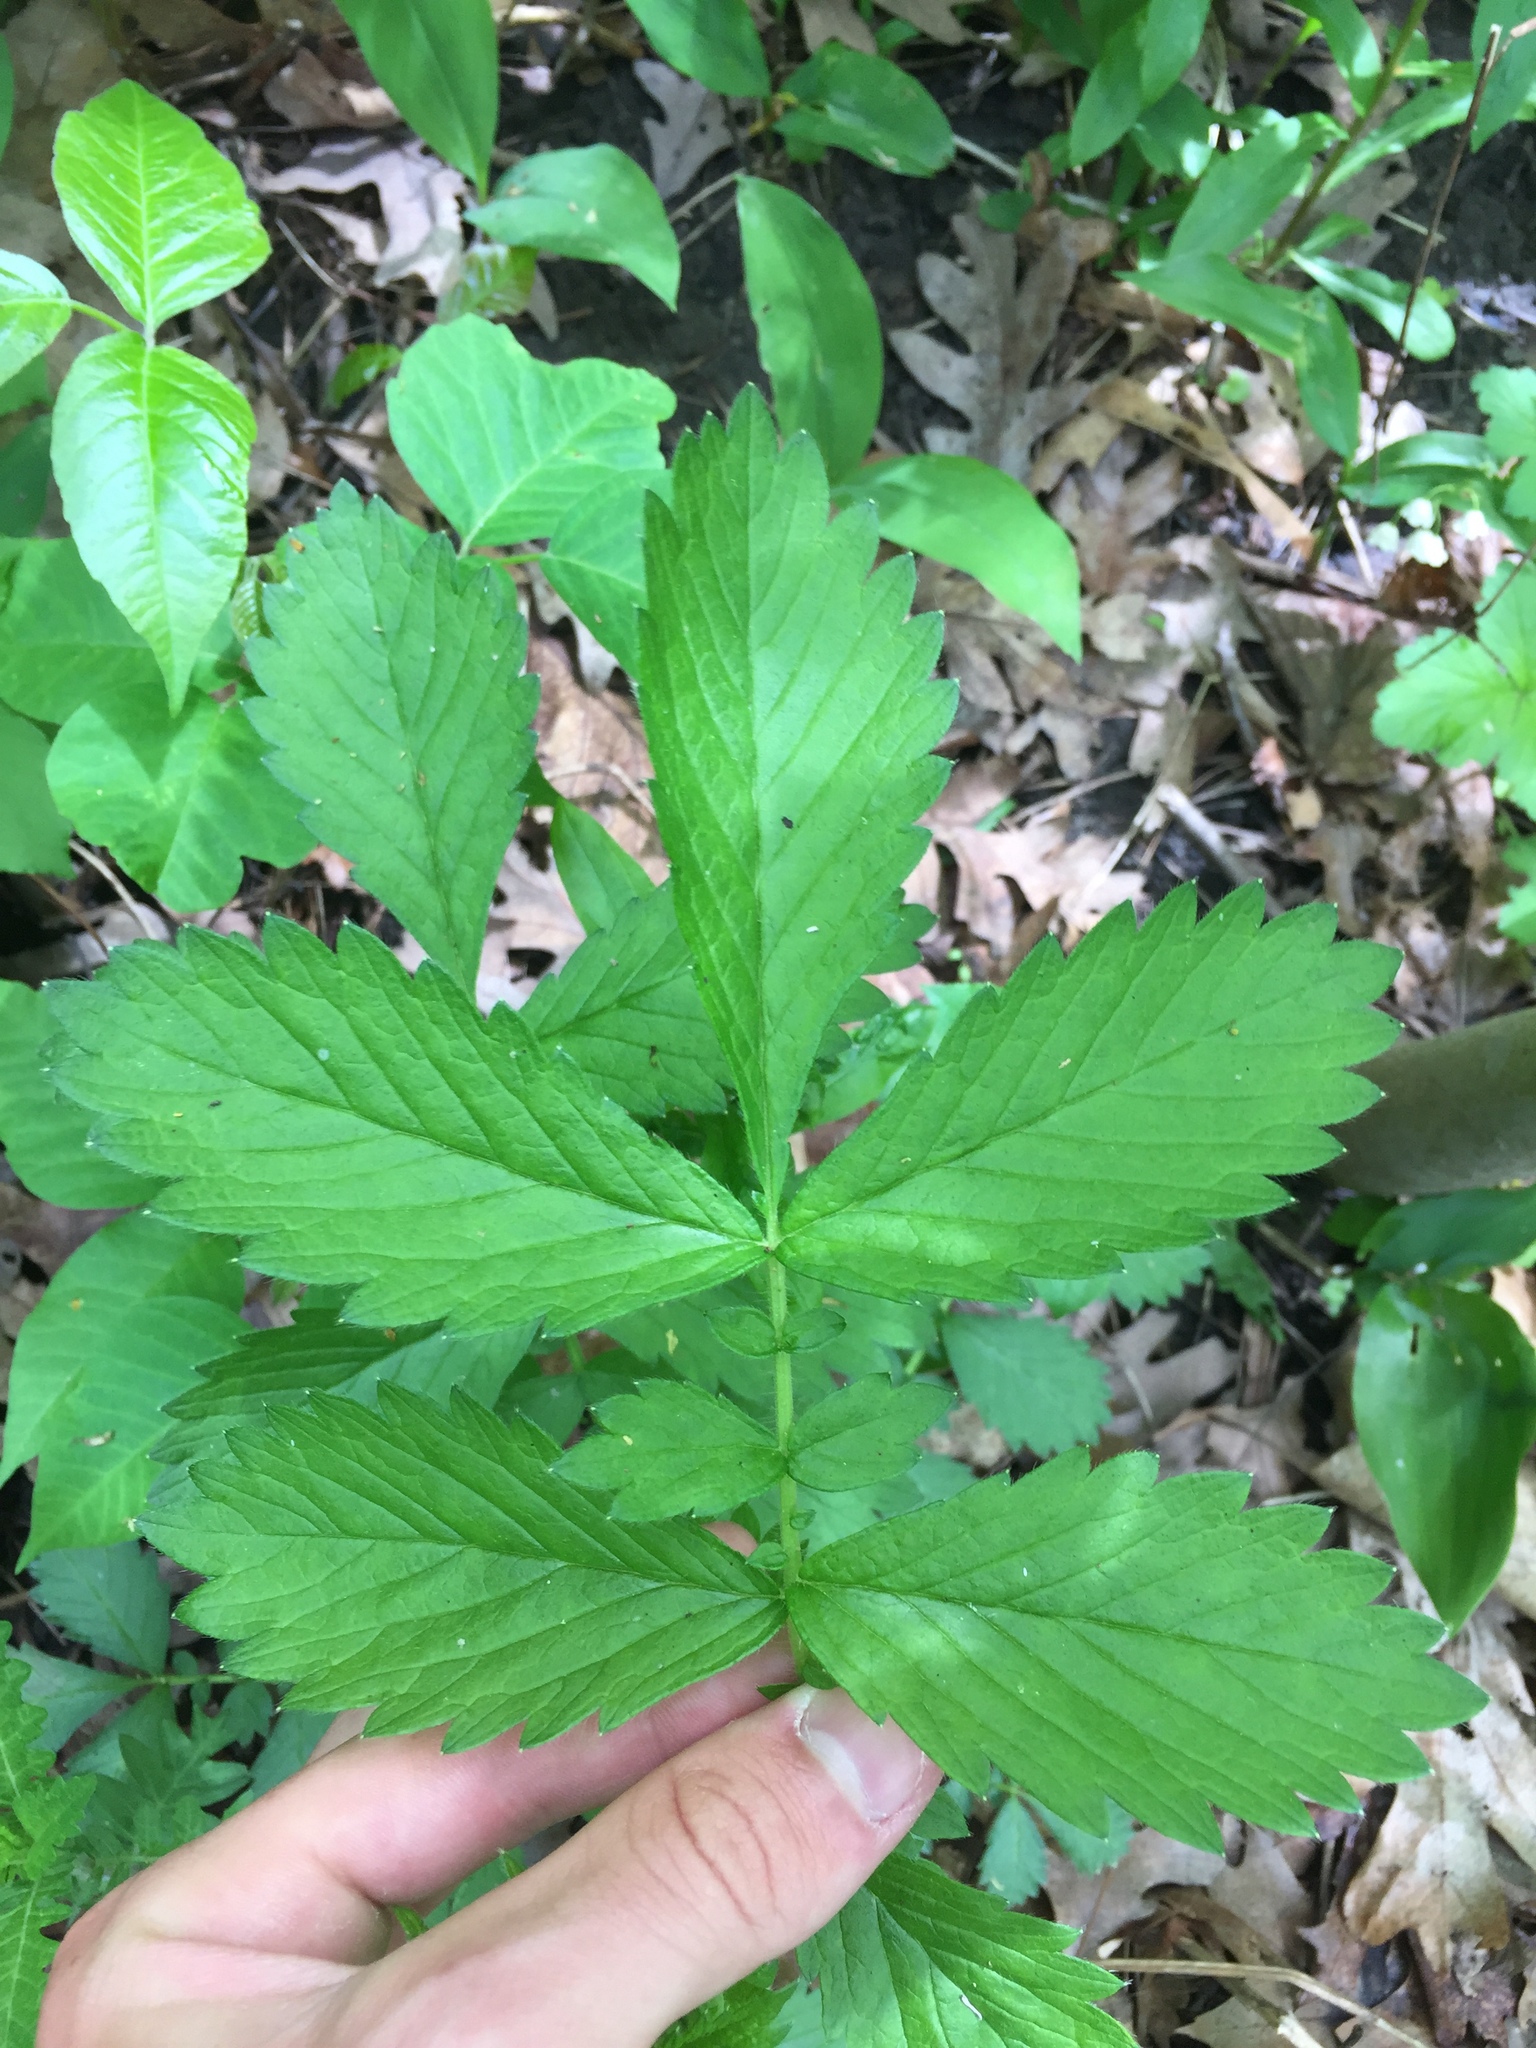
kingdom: Plantae
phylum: Tracheophyta
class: Magnoliopsida
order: Rosales
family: Rosaceae
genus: Agrimonia
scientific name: Agrimonia gryposepala
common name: Common agrimony
